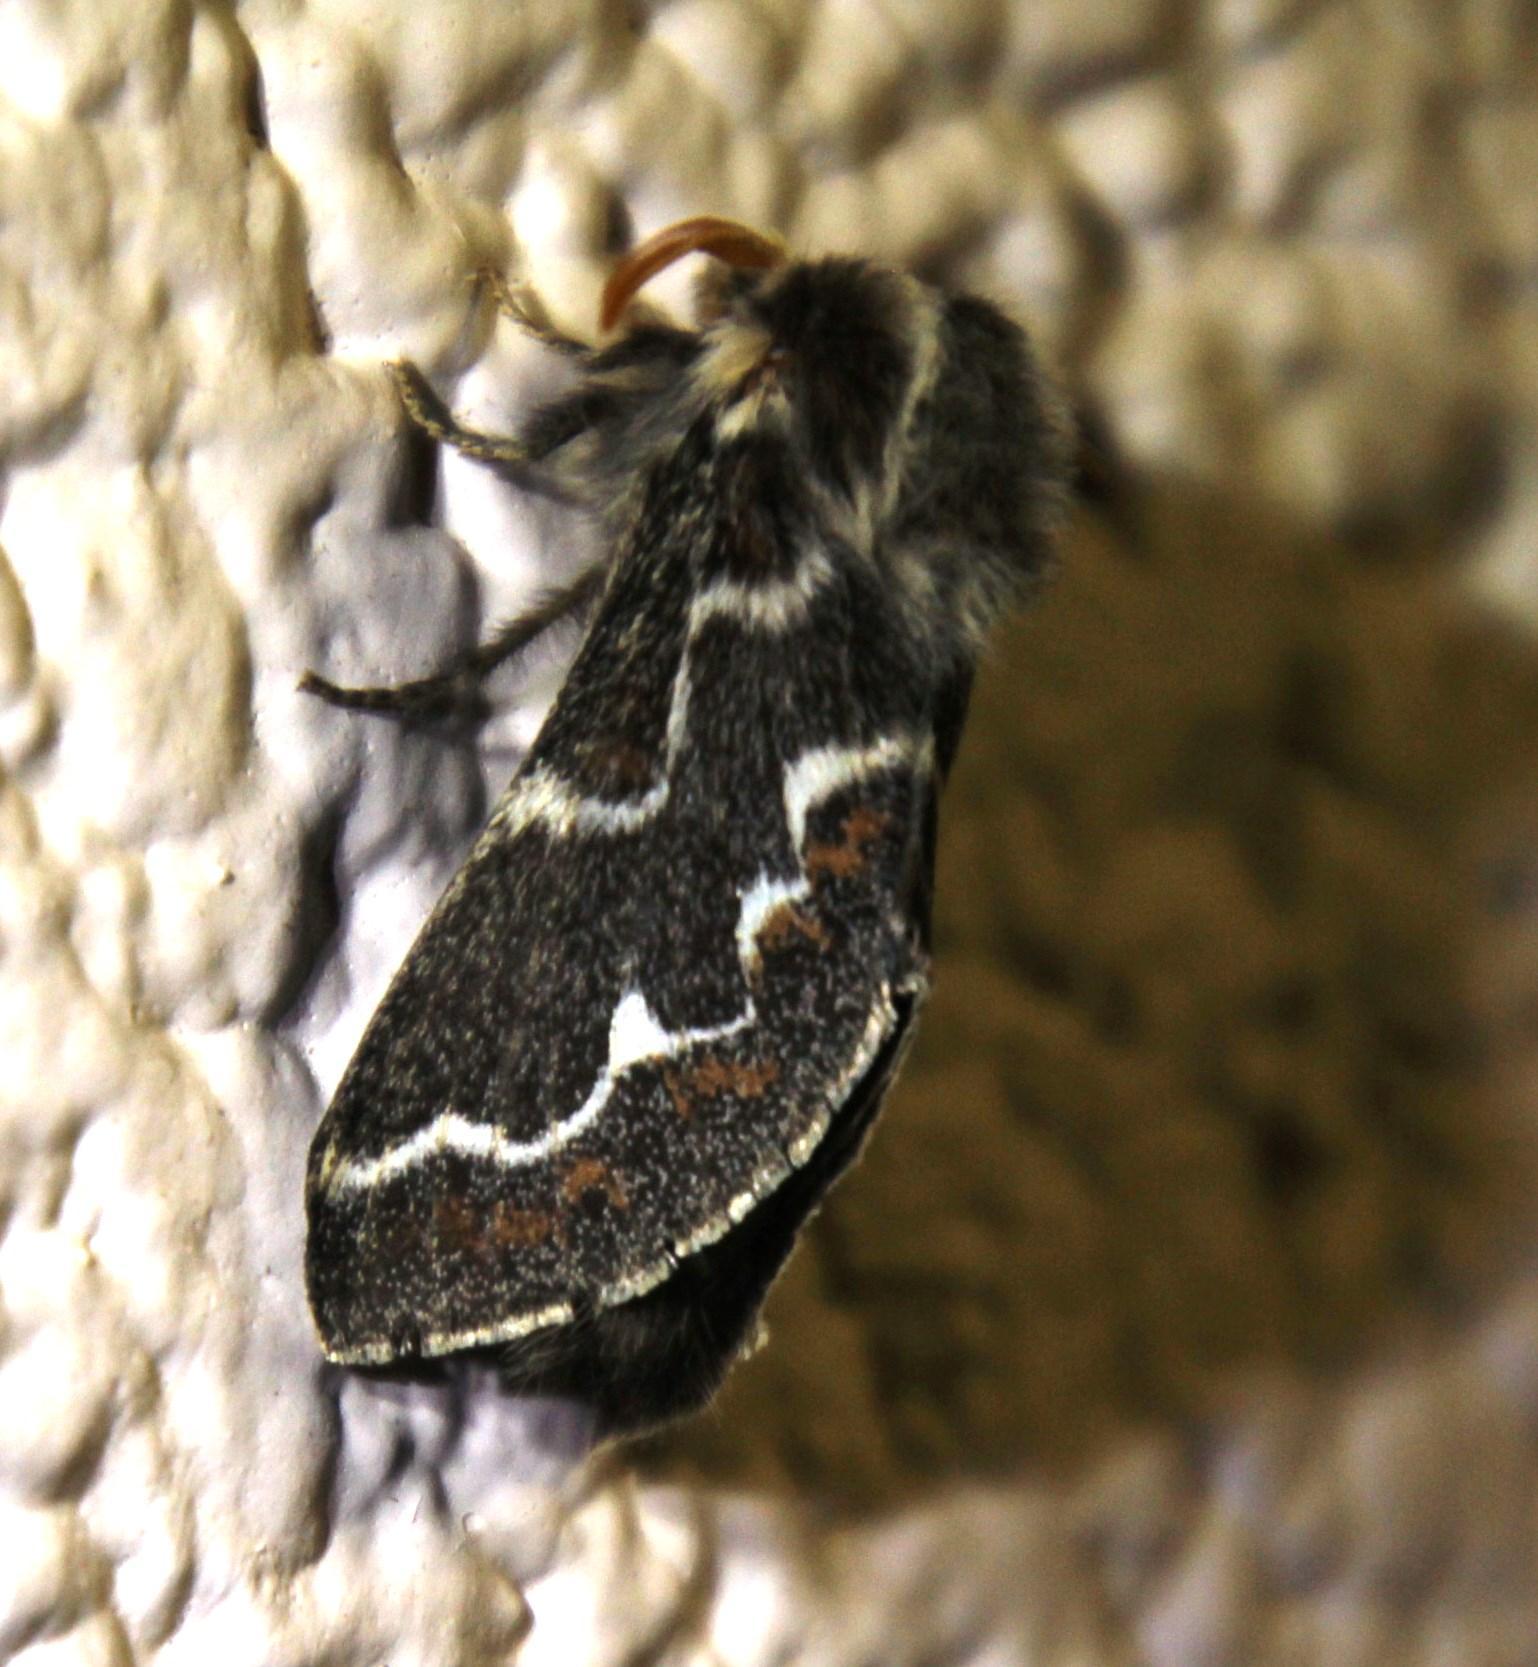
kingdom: Animalia
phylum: Arthropoda
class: Insecta
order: Lepidoptera
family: Lasiocampidae
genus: Streblote
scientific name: Streblote capensis
